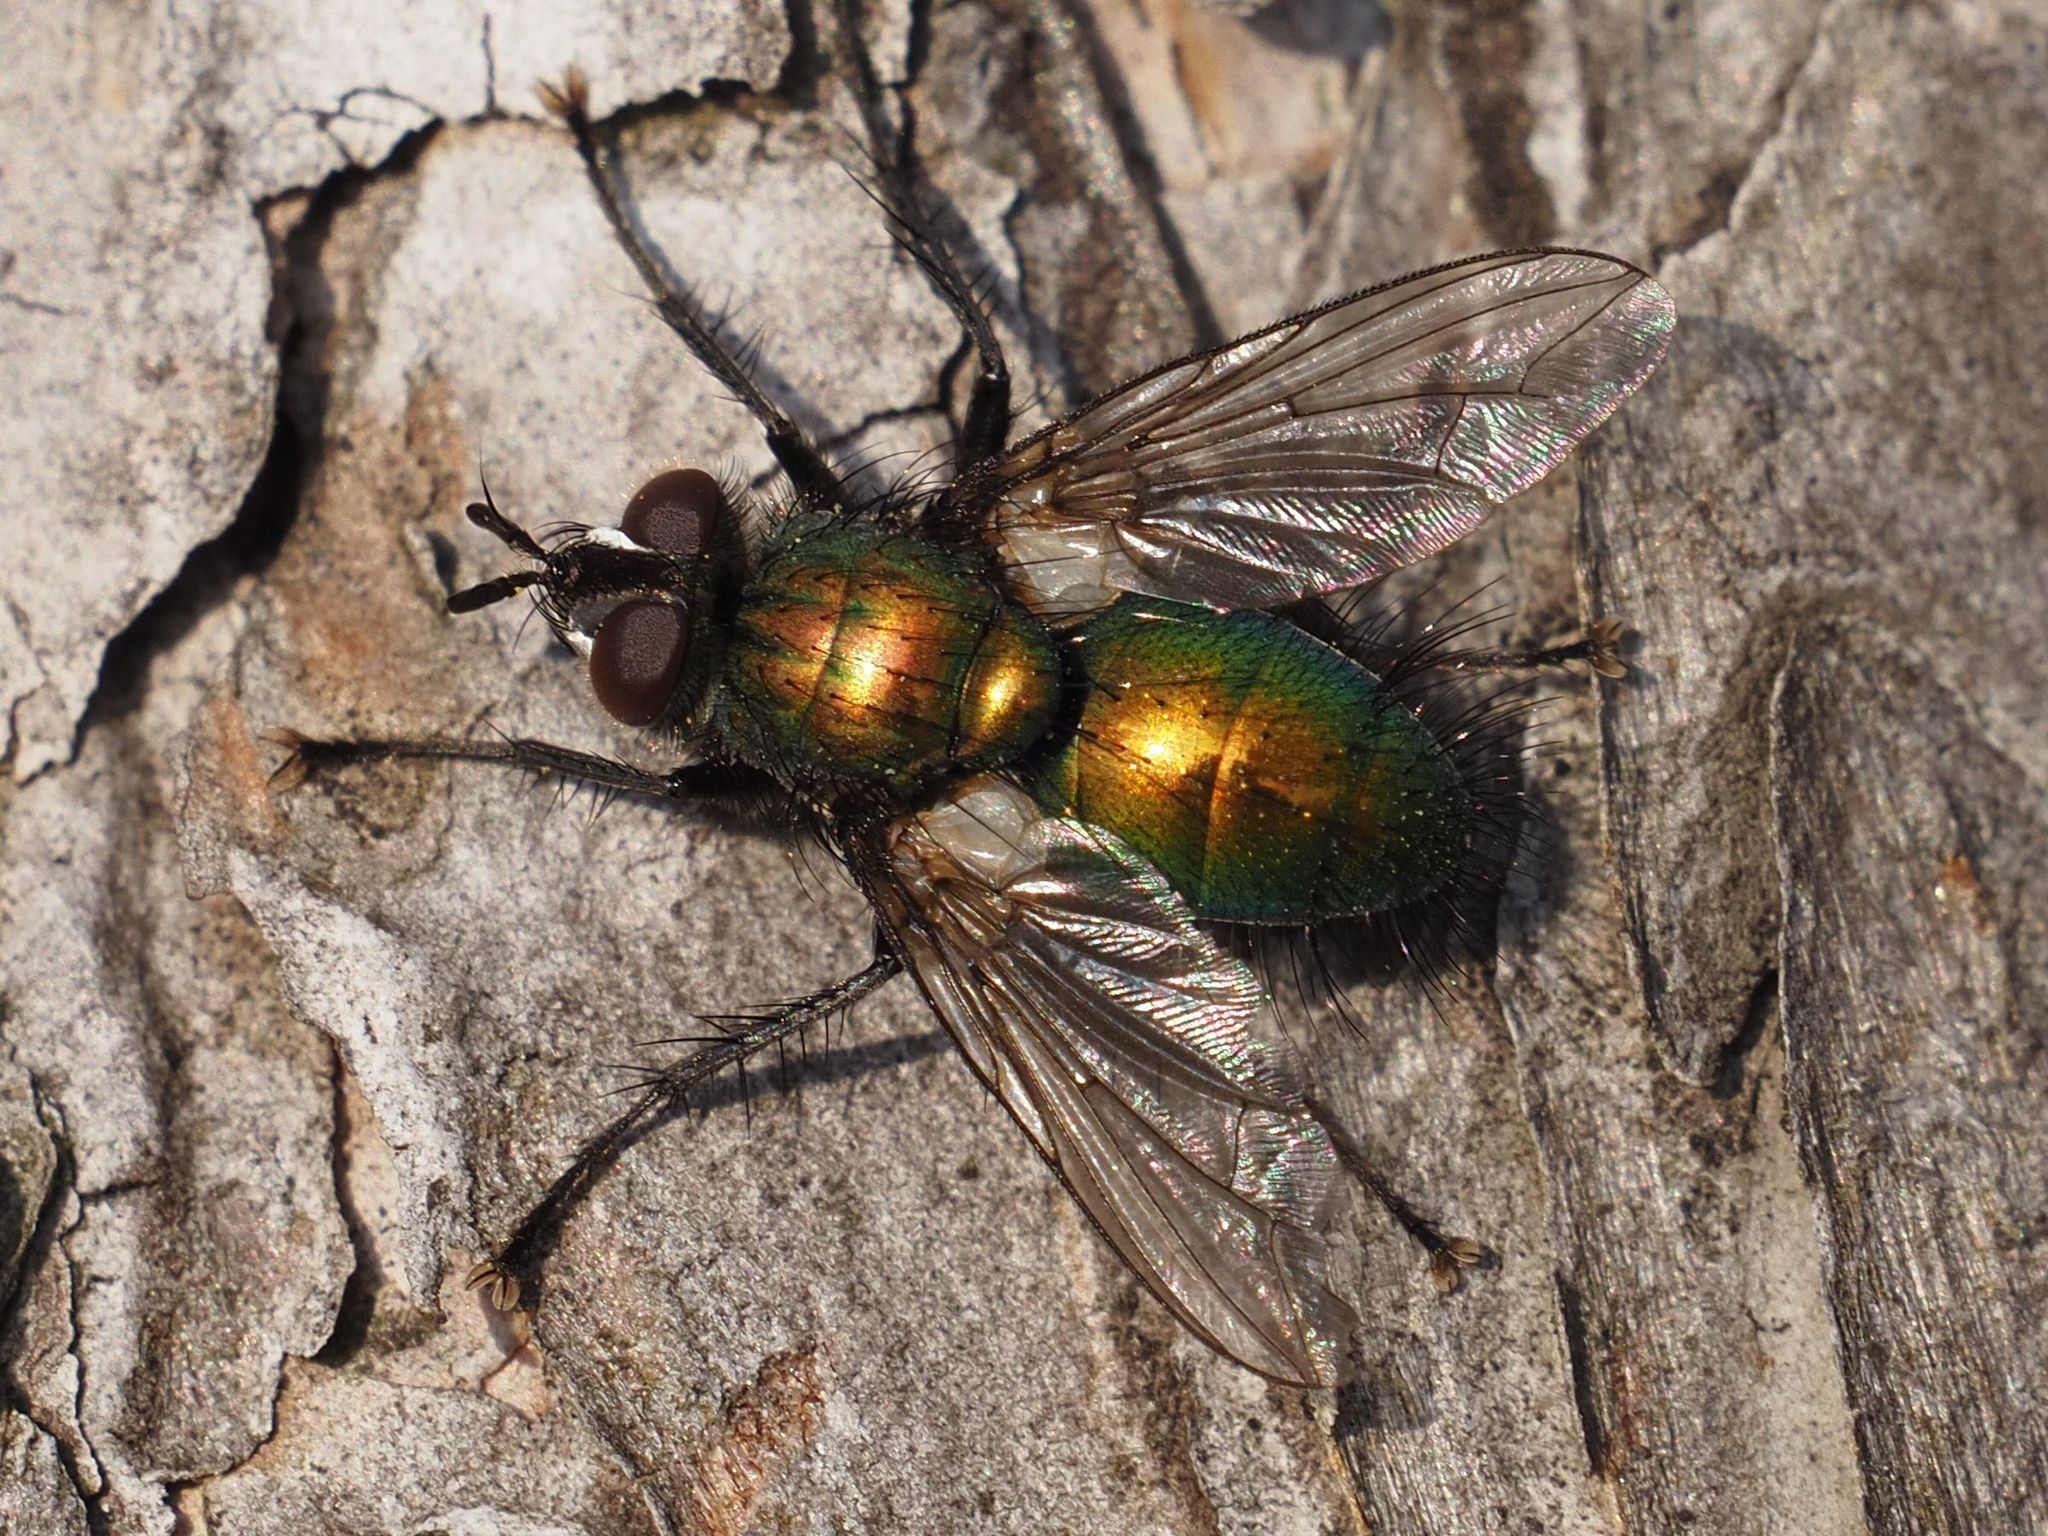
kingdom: Animalia
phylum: Arthropoda
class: Insecta
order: Diptera
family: Tachinidae
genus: Gymnocheta
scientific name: Gymnocheta viridis
